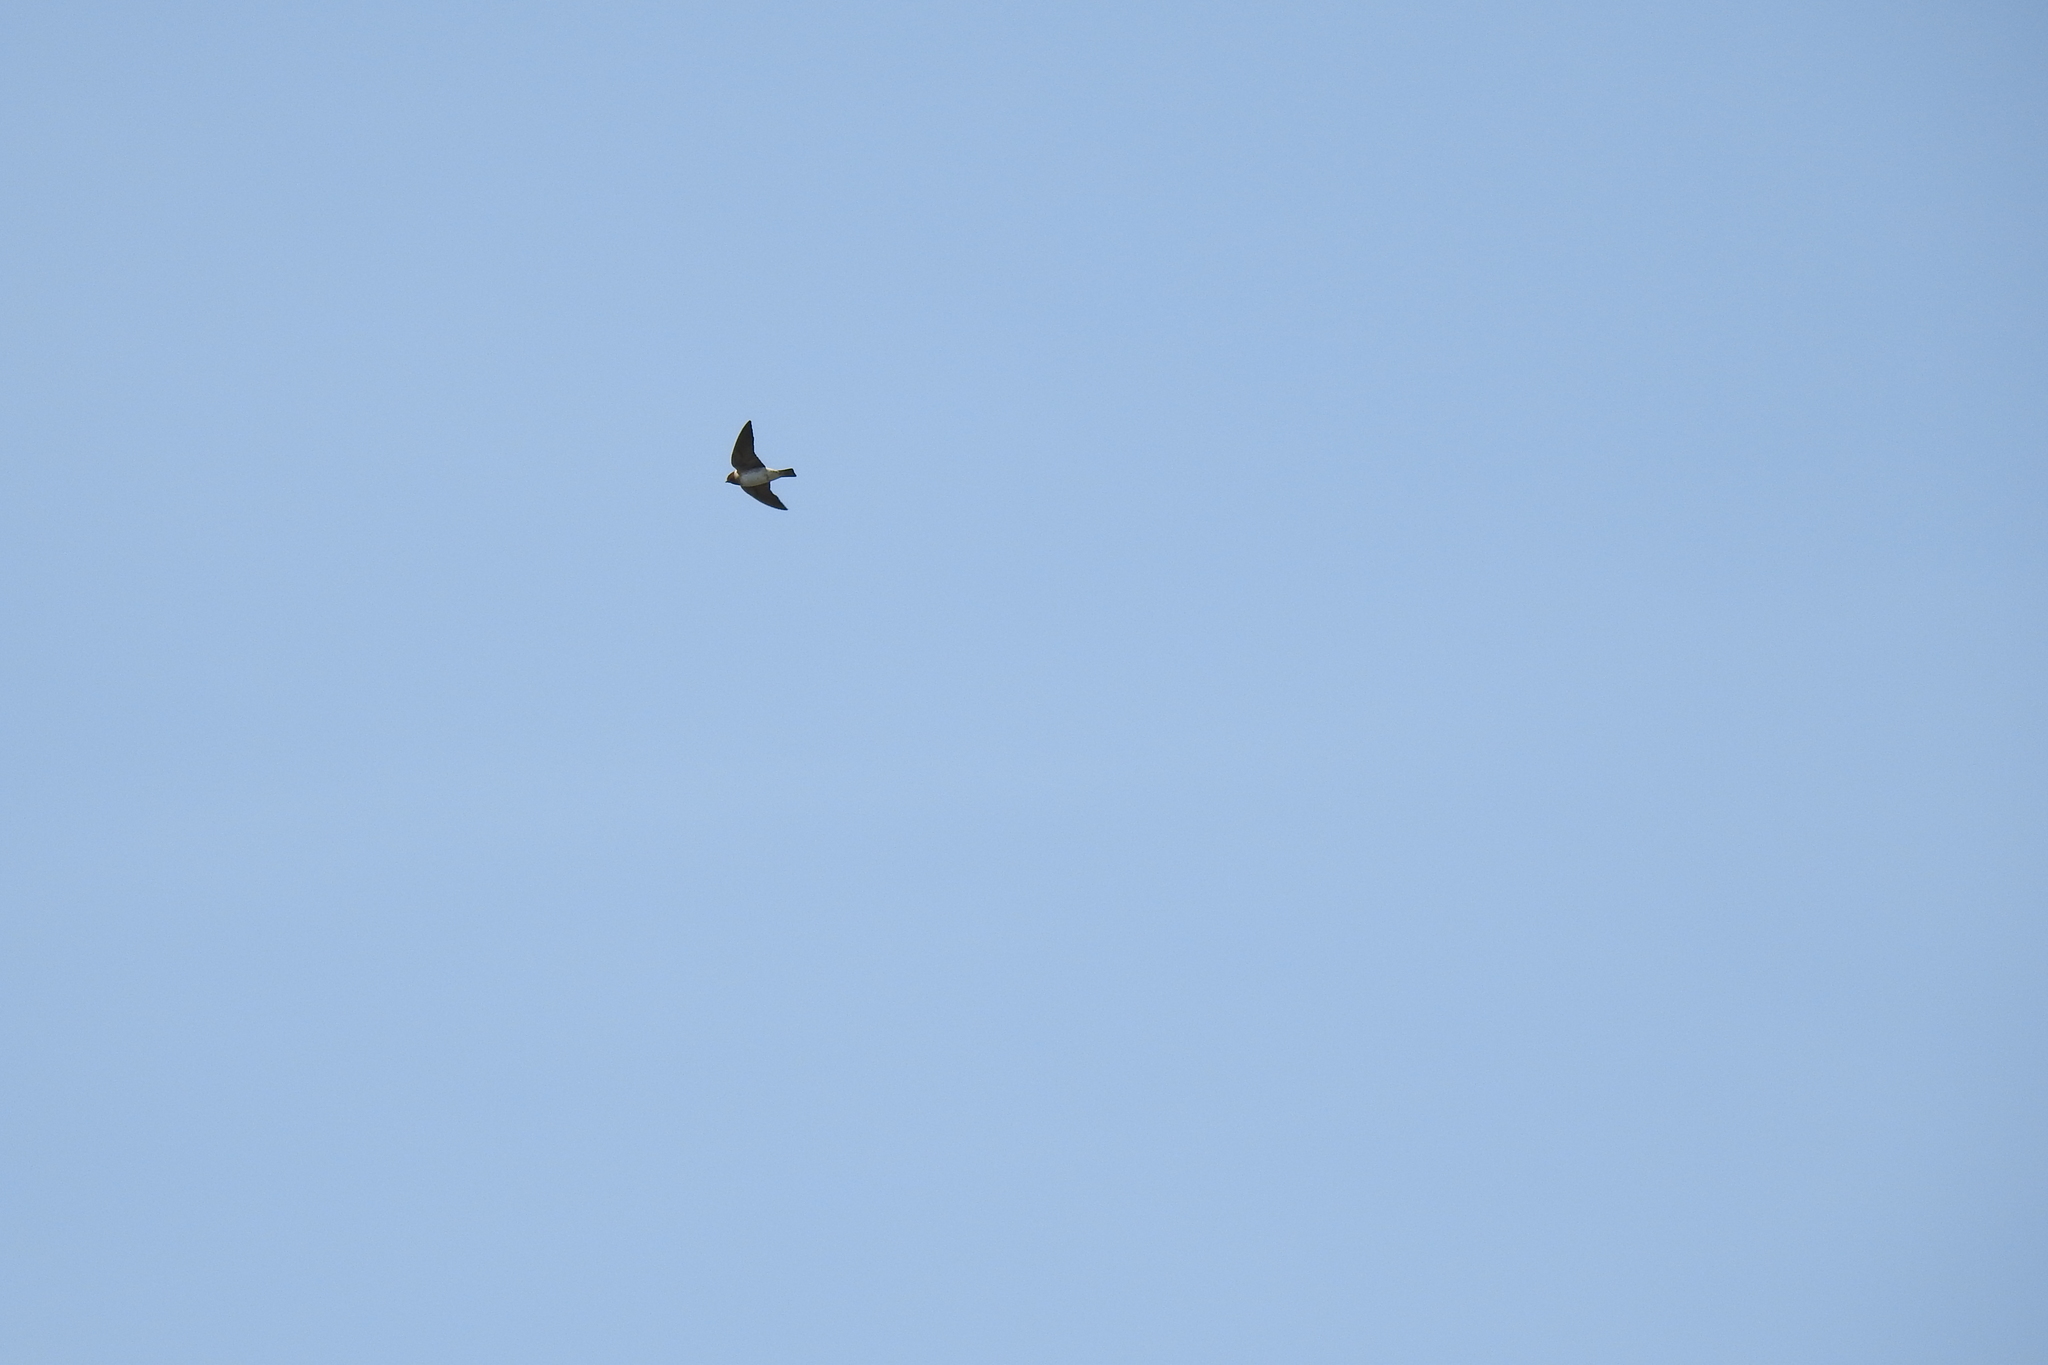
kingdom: Animalia
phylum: Chordata
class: Aves
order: Passeriformes
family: Hirundinidae
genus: Petrochelidon
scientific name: Petrochelidon pyrrhonota
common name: American cliff swallow
